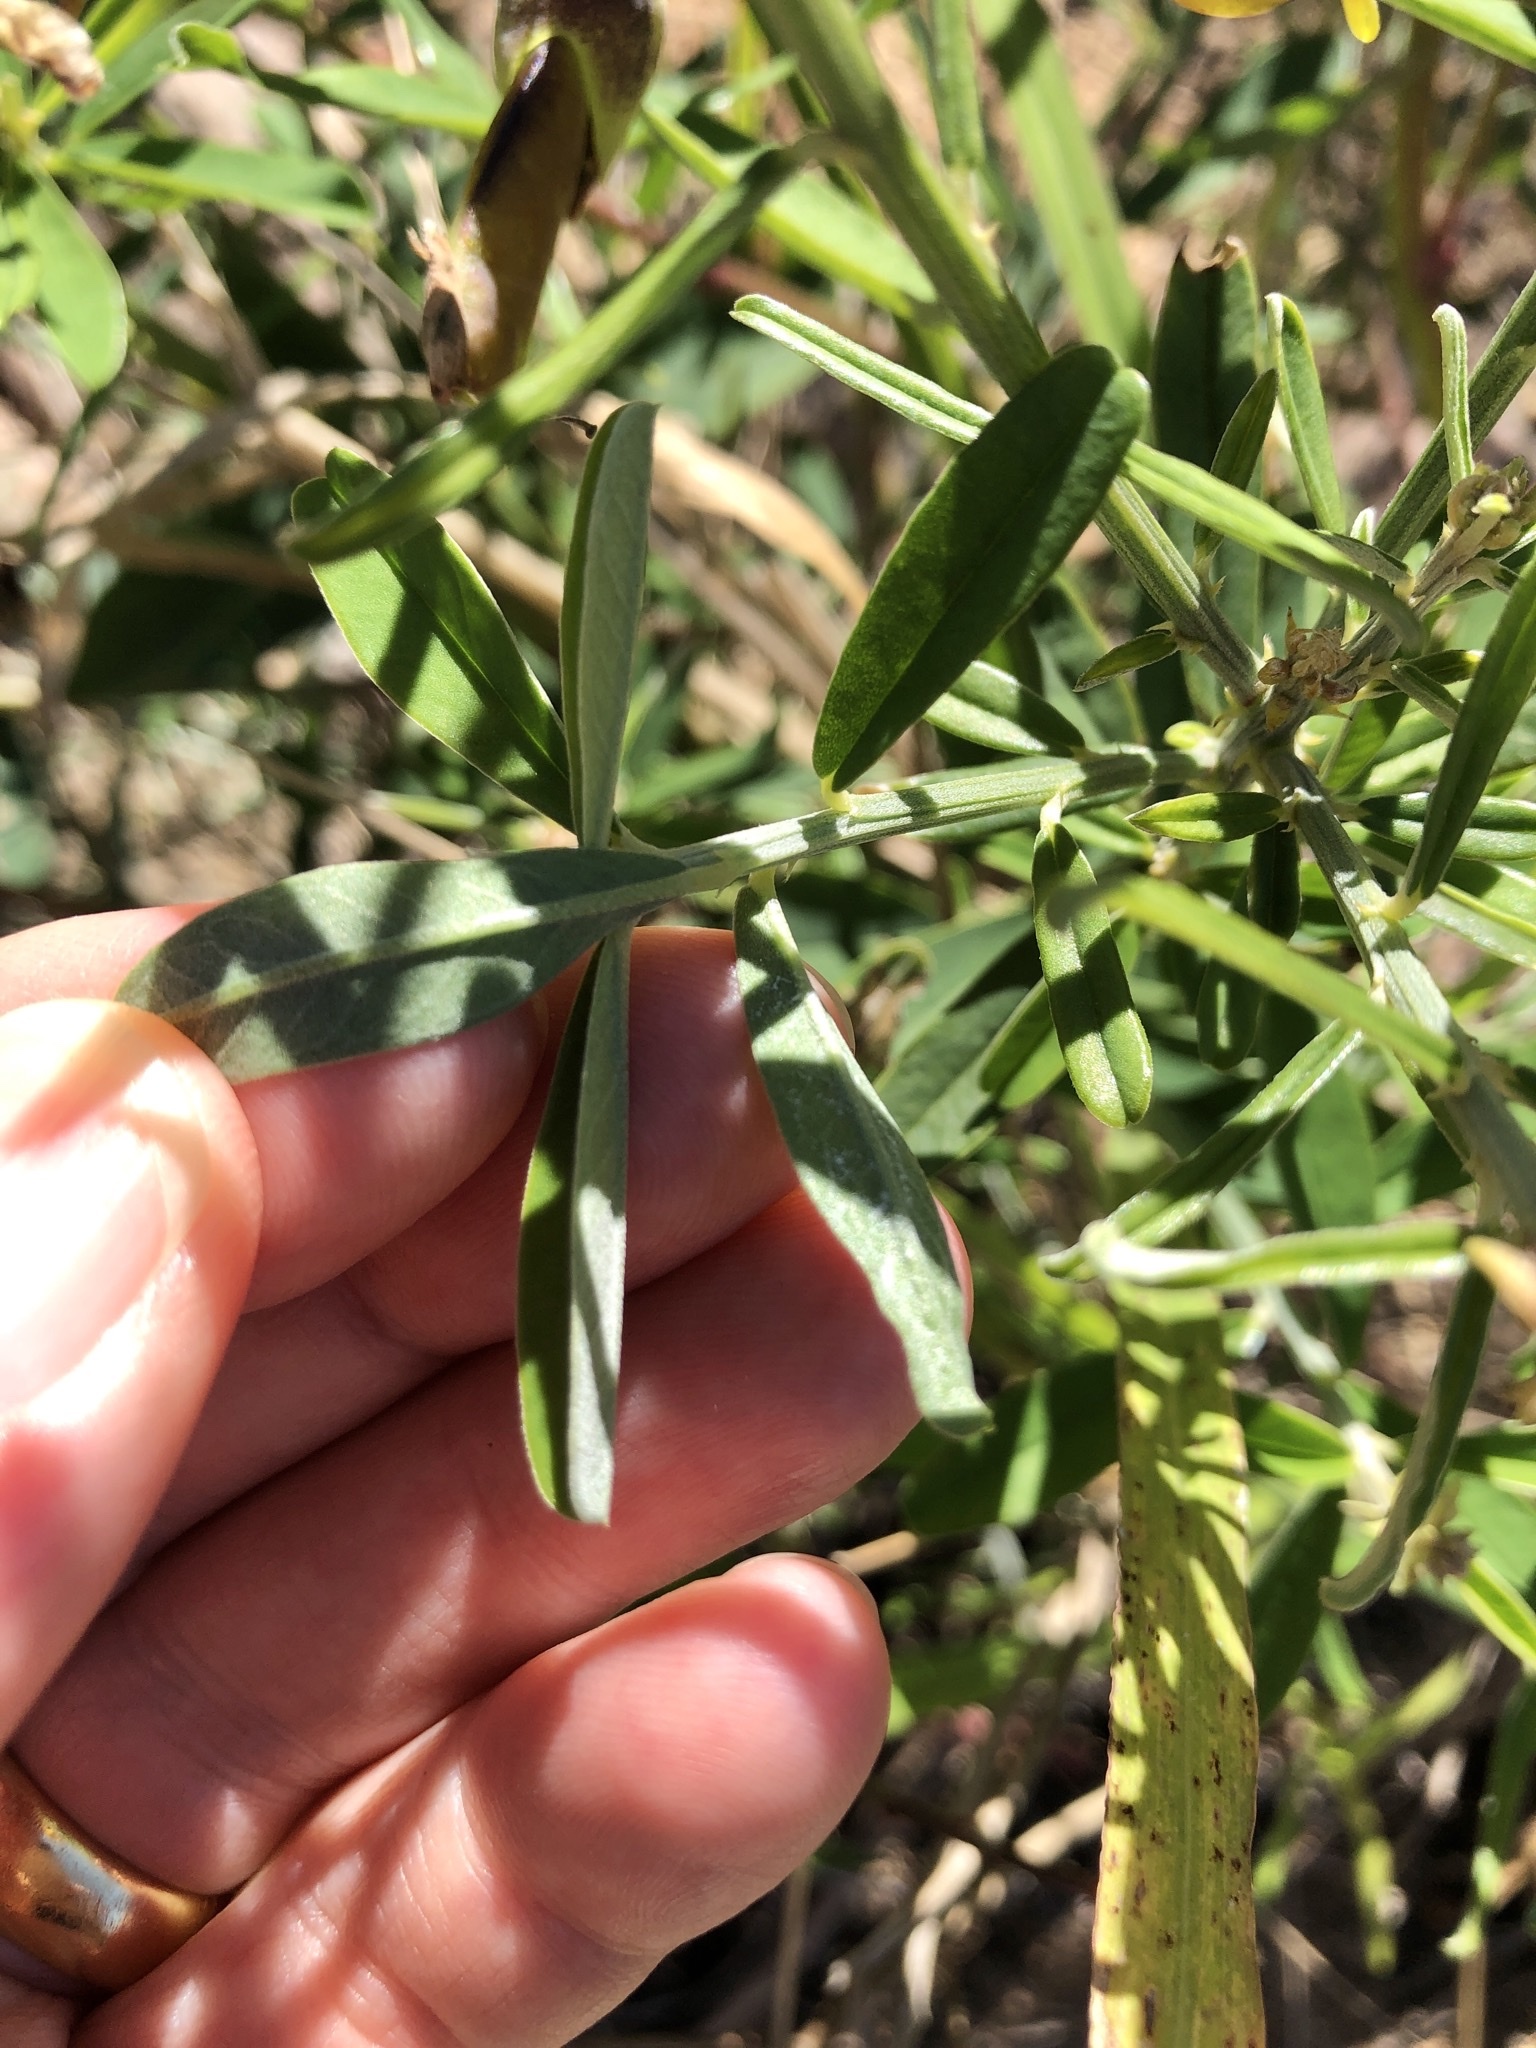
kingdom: Plantae
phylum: Tracheophyta
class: Magnoliopsida
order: Fabales
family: Fabaceae
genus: Crotalaria
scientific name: Crotalaria lanceolata
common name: Lanceleaf rattlebox
